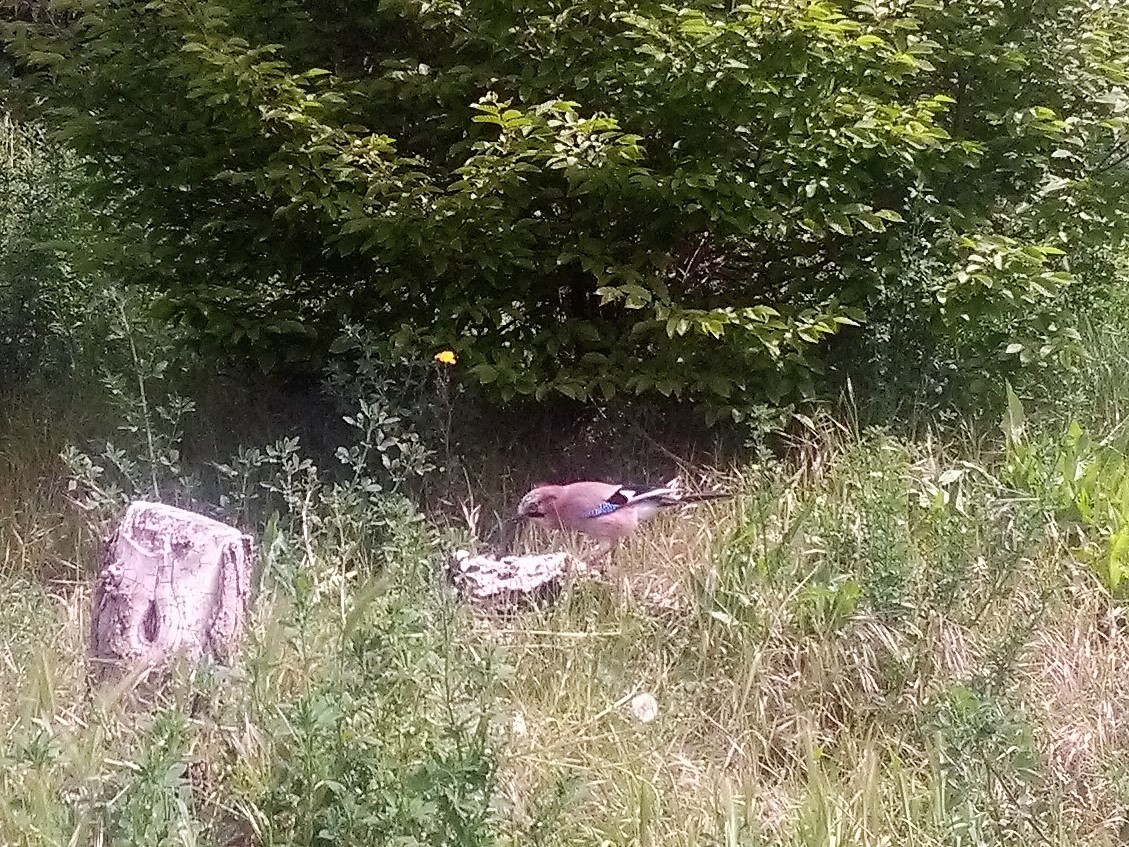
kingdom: Animalia
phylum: Chordata
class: Aves
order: Passeriformes
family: Corvidae
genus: Garrulus
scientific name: Garrulus glandarius
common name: Eurasian jay
